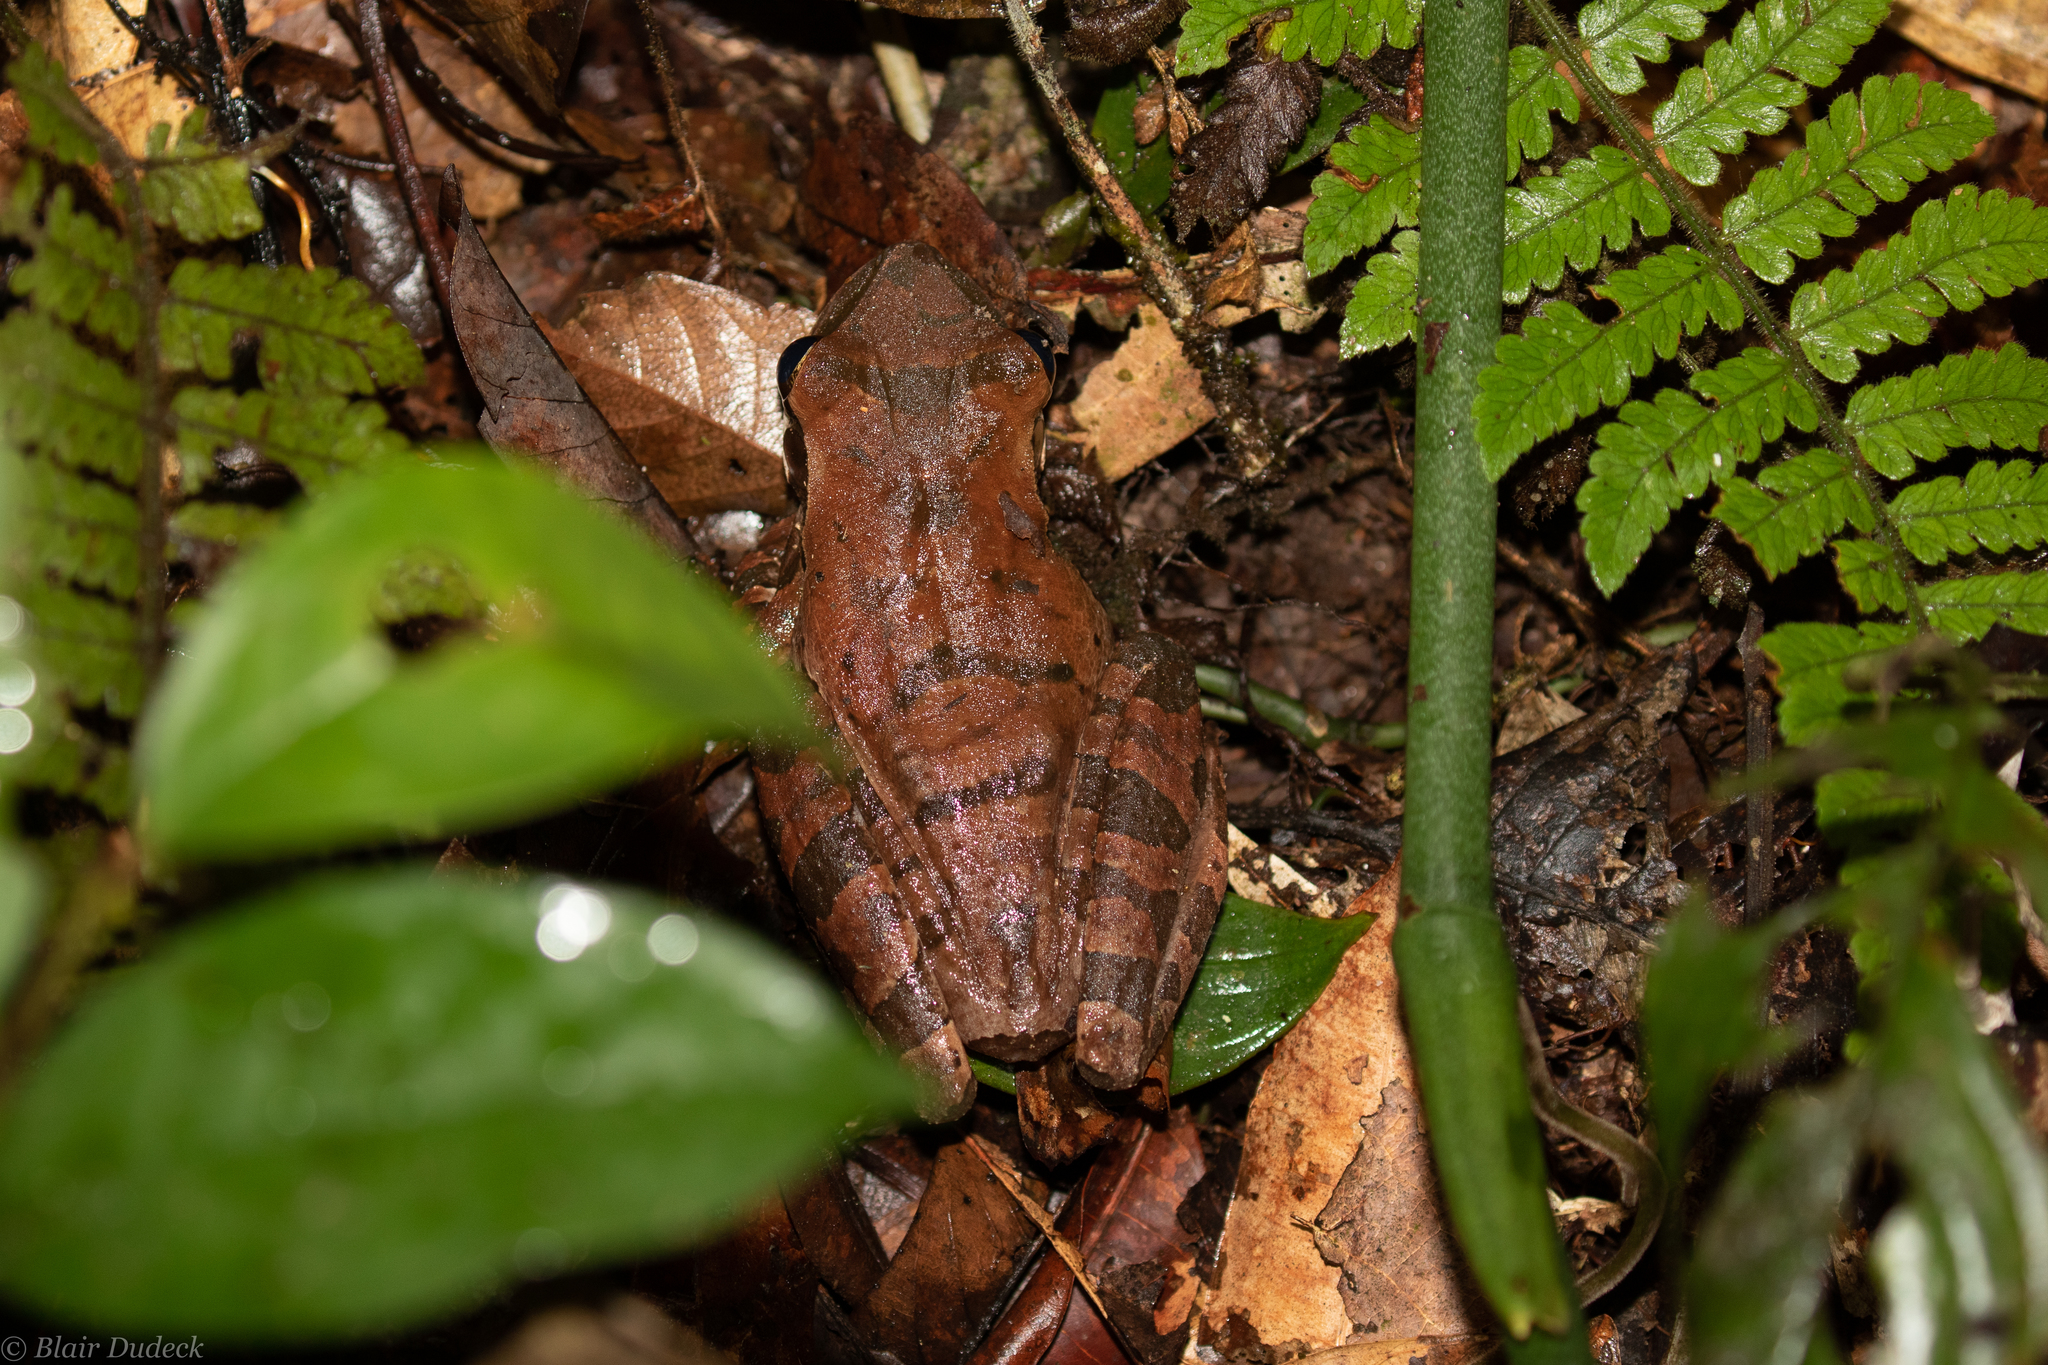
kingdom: Animalia
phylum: Chordata
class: Amphibia
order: Anura
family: Hylidae
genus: Osteocephalus
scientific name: Osteocephalus taurinus
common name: Manaus slender-legged treefrog
